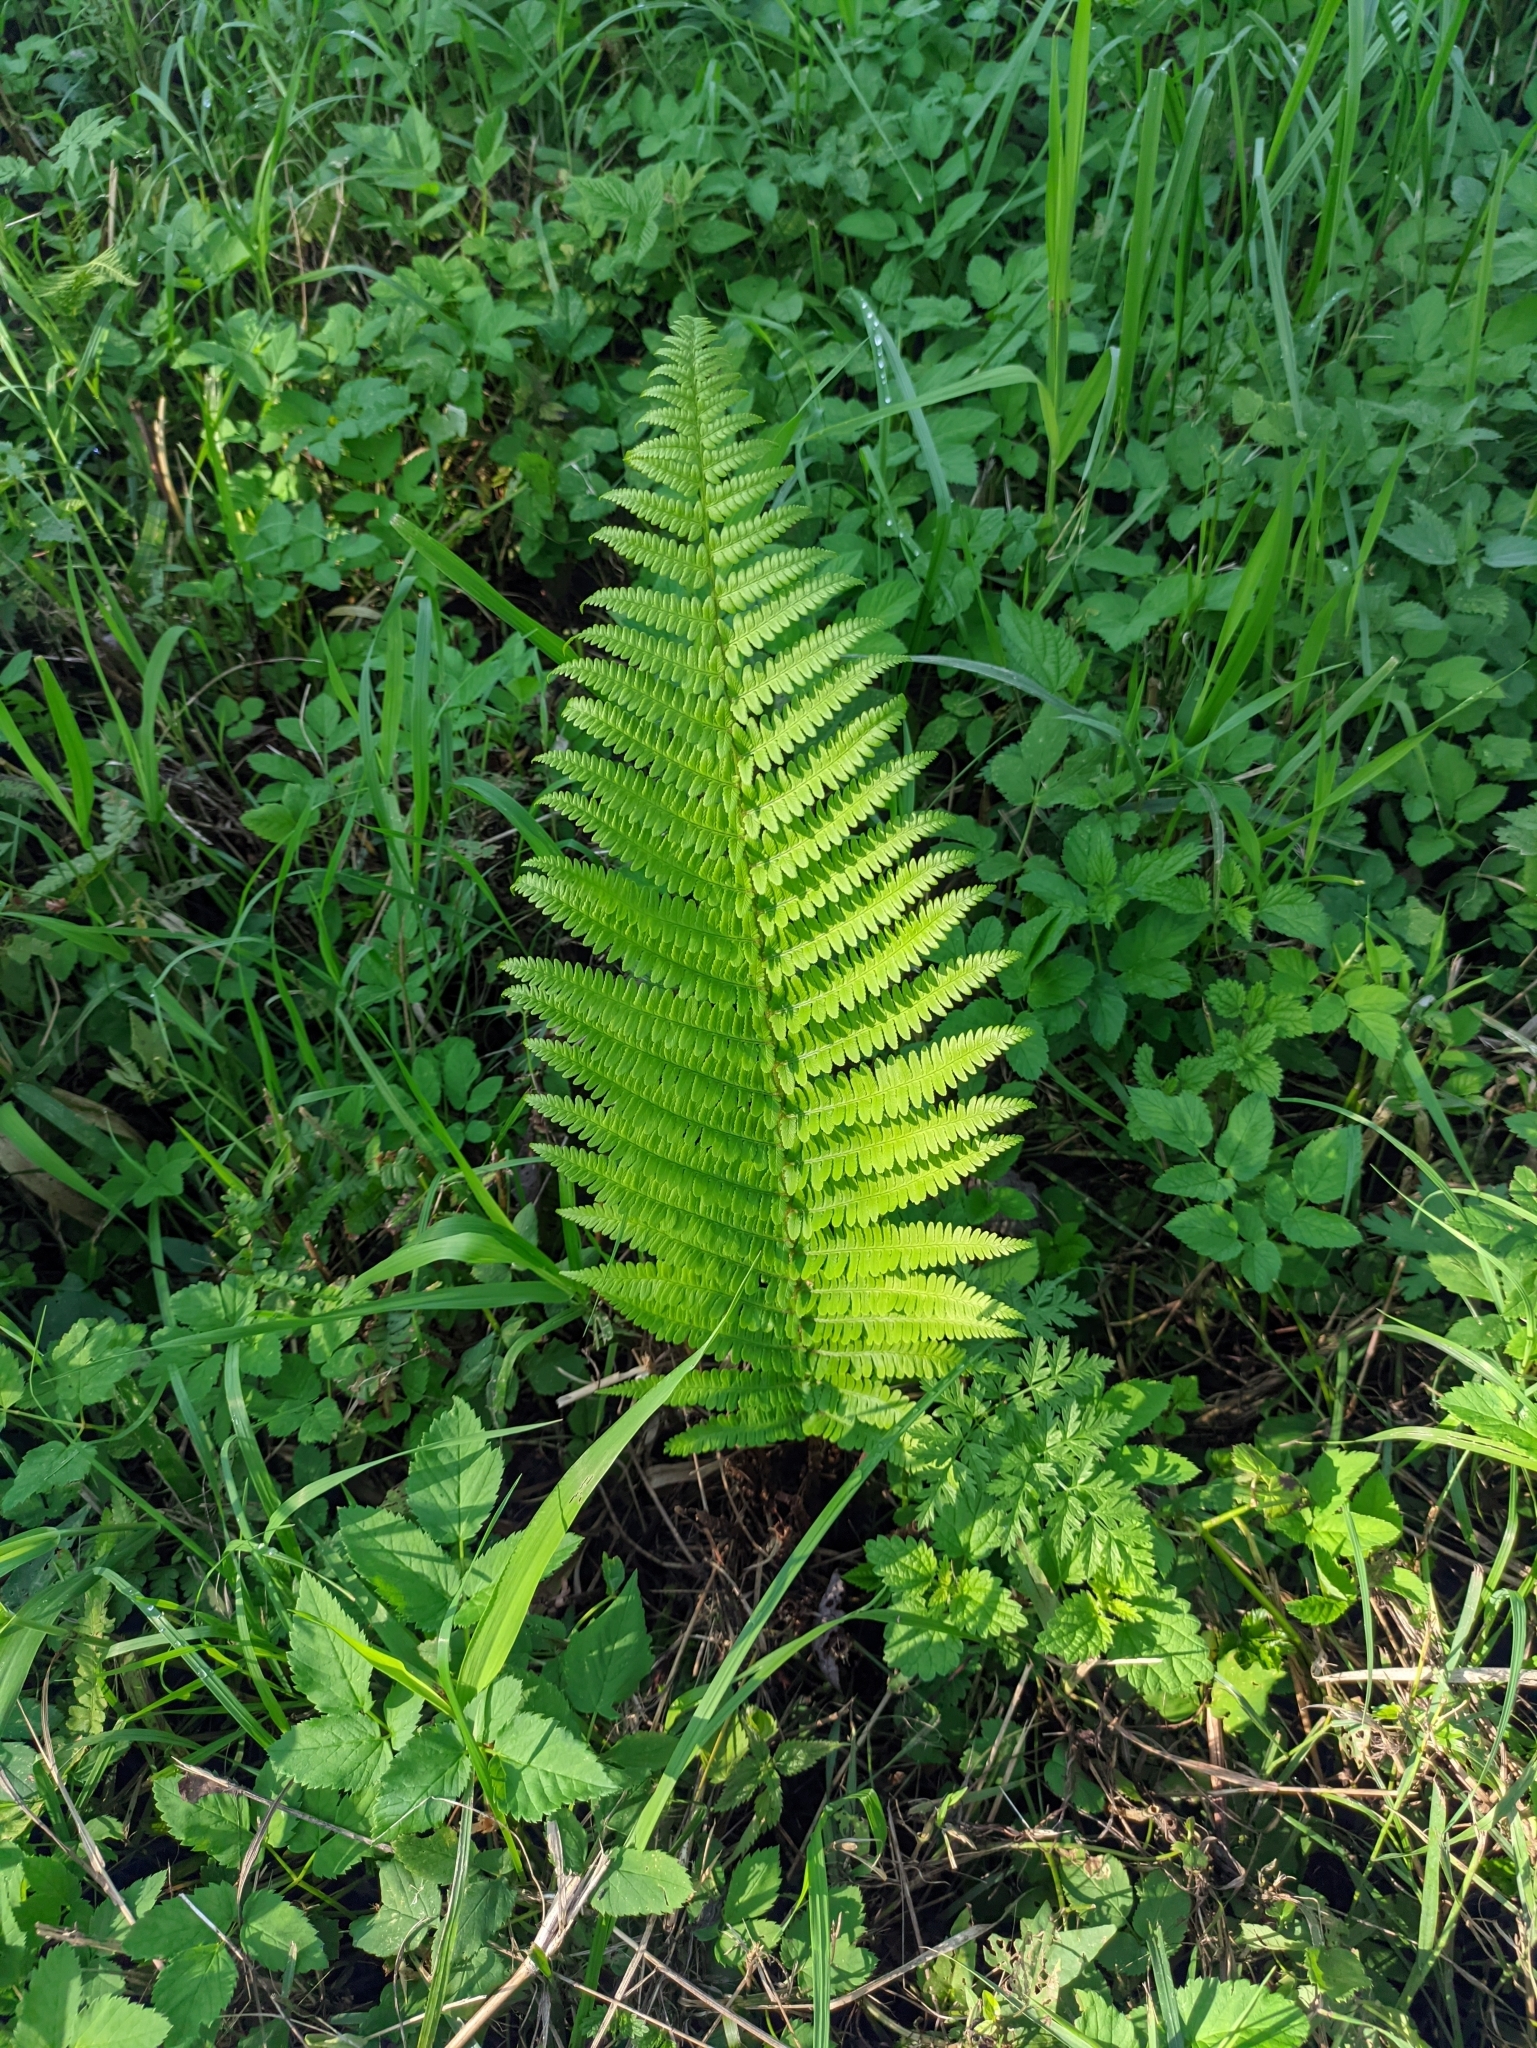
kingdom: Plantae
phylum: Tracheophyta
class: Polypodiopsida
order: Polypodiales
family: Onocleaceae
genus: Matteuccia
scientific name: Matteuccia struthiopteris
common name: Ostrich fern
